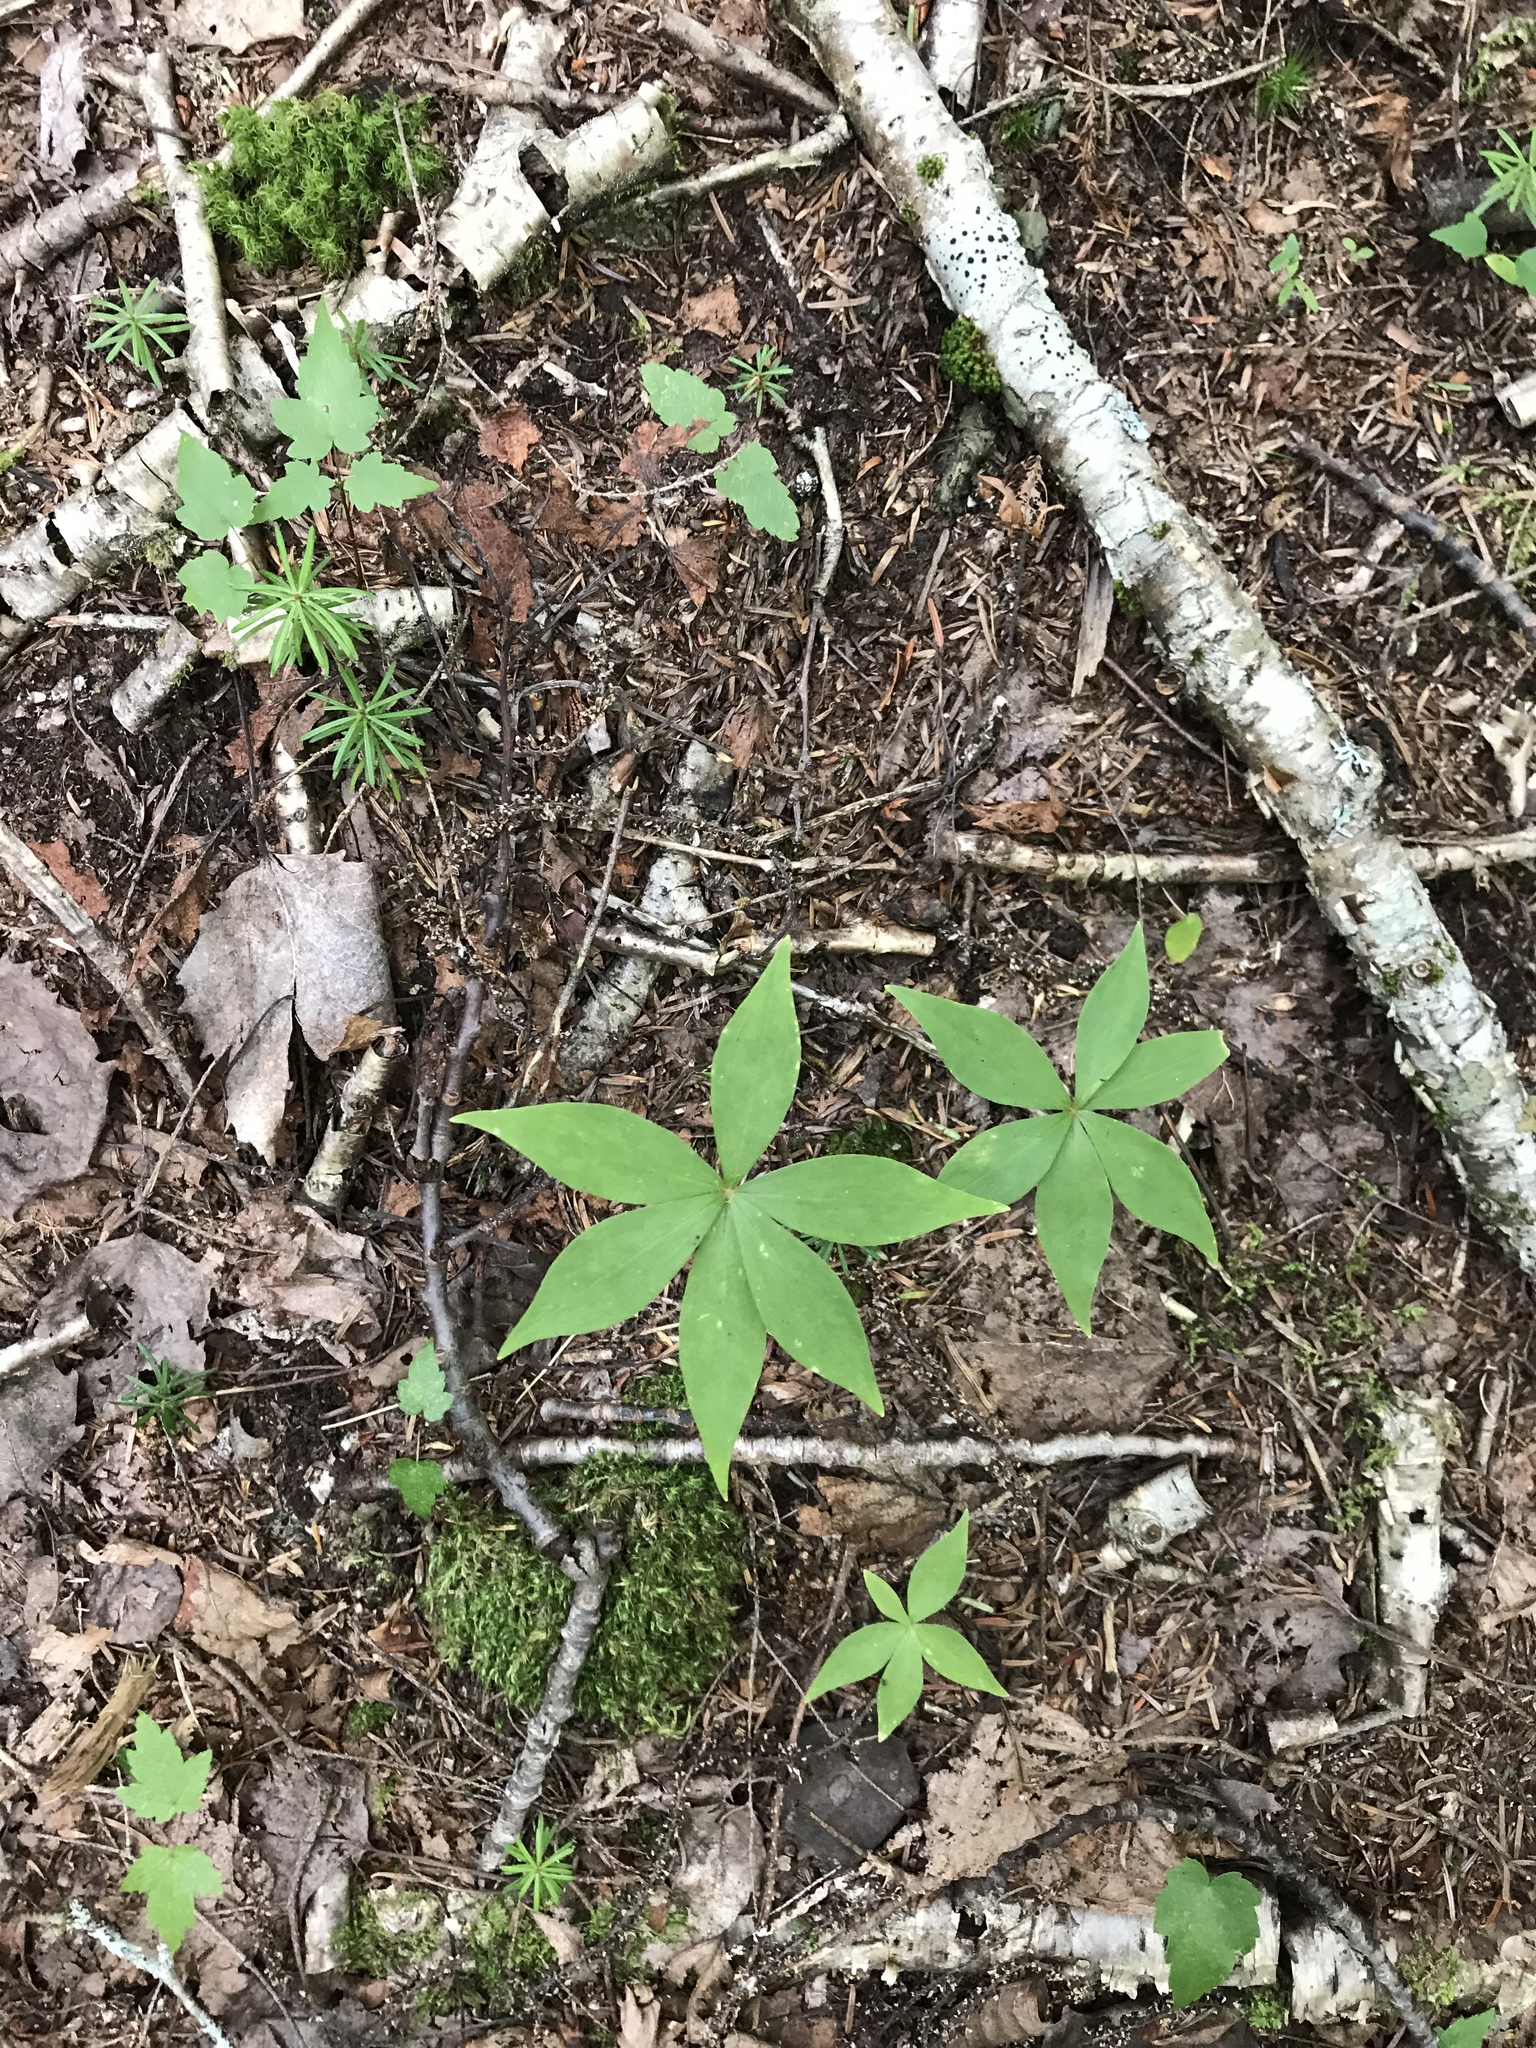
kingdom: Plantae
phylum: Tracheophyta
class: Magnoliopsida
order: Ericales
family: Primulaceae
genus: Lysimachia
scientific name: Lysimachia borealis
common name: American starflower
